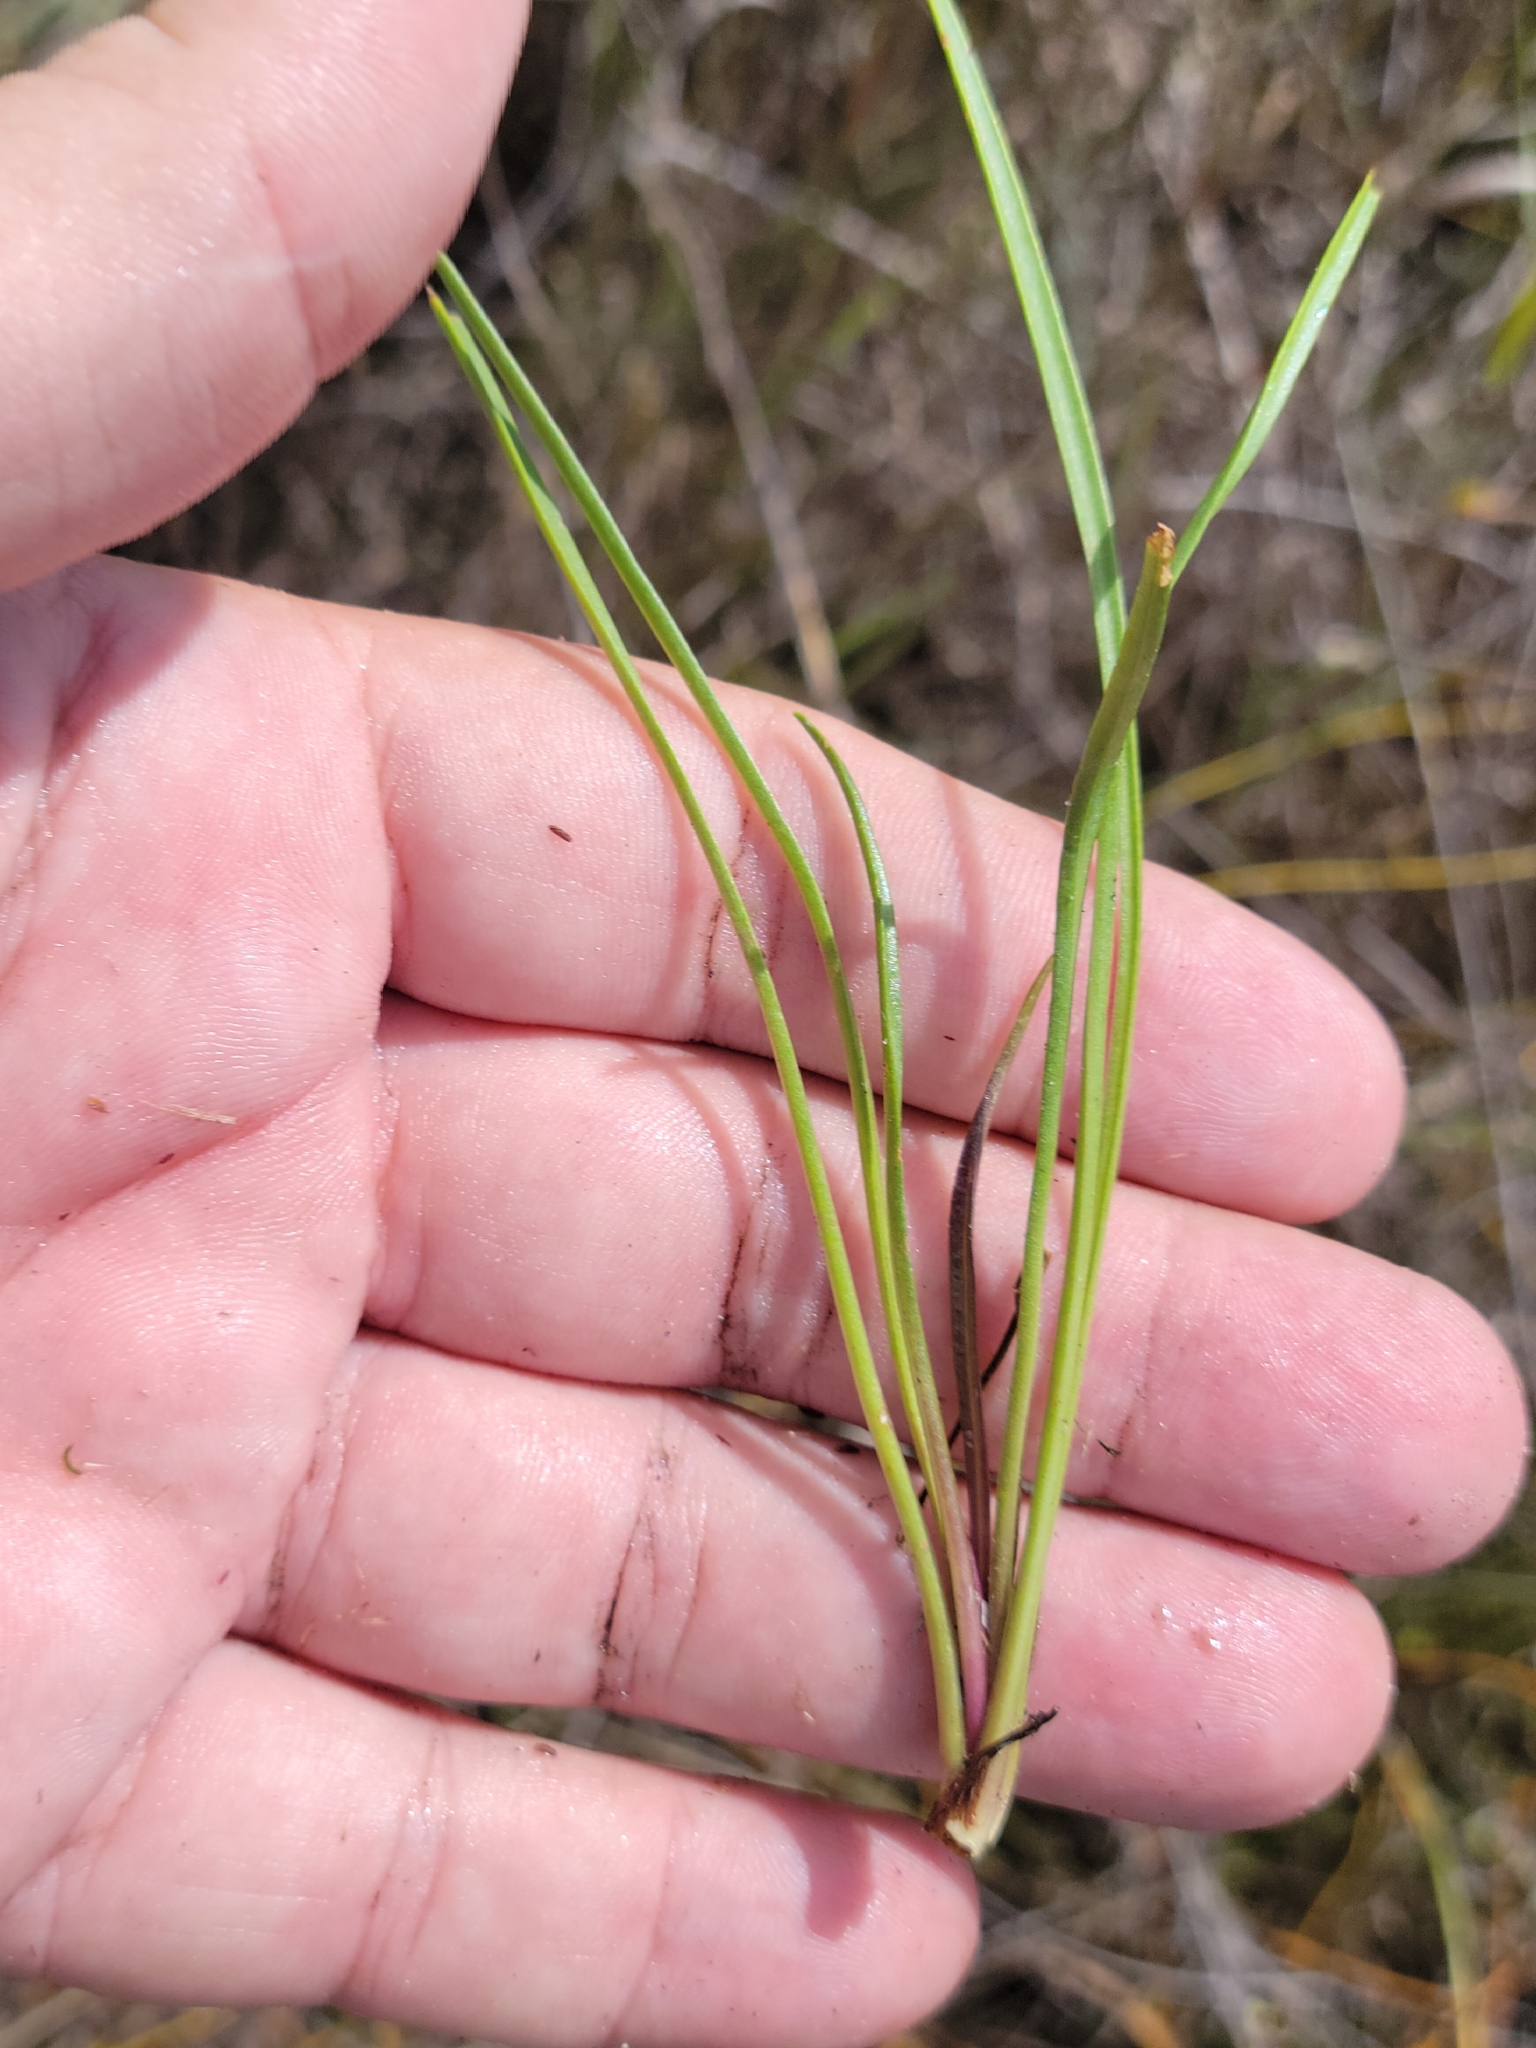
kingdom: Plantae
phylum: Tracheophyta
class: Magnoliopsida
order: Asterales
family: Asteraceae
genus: Bigelowia
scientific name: Bigelowia australis
